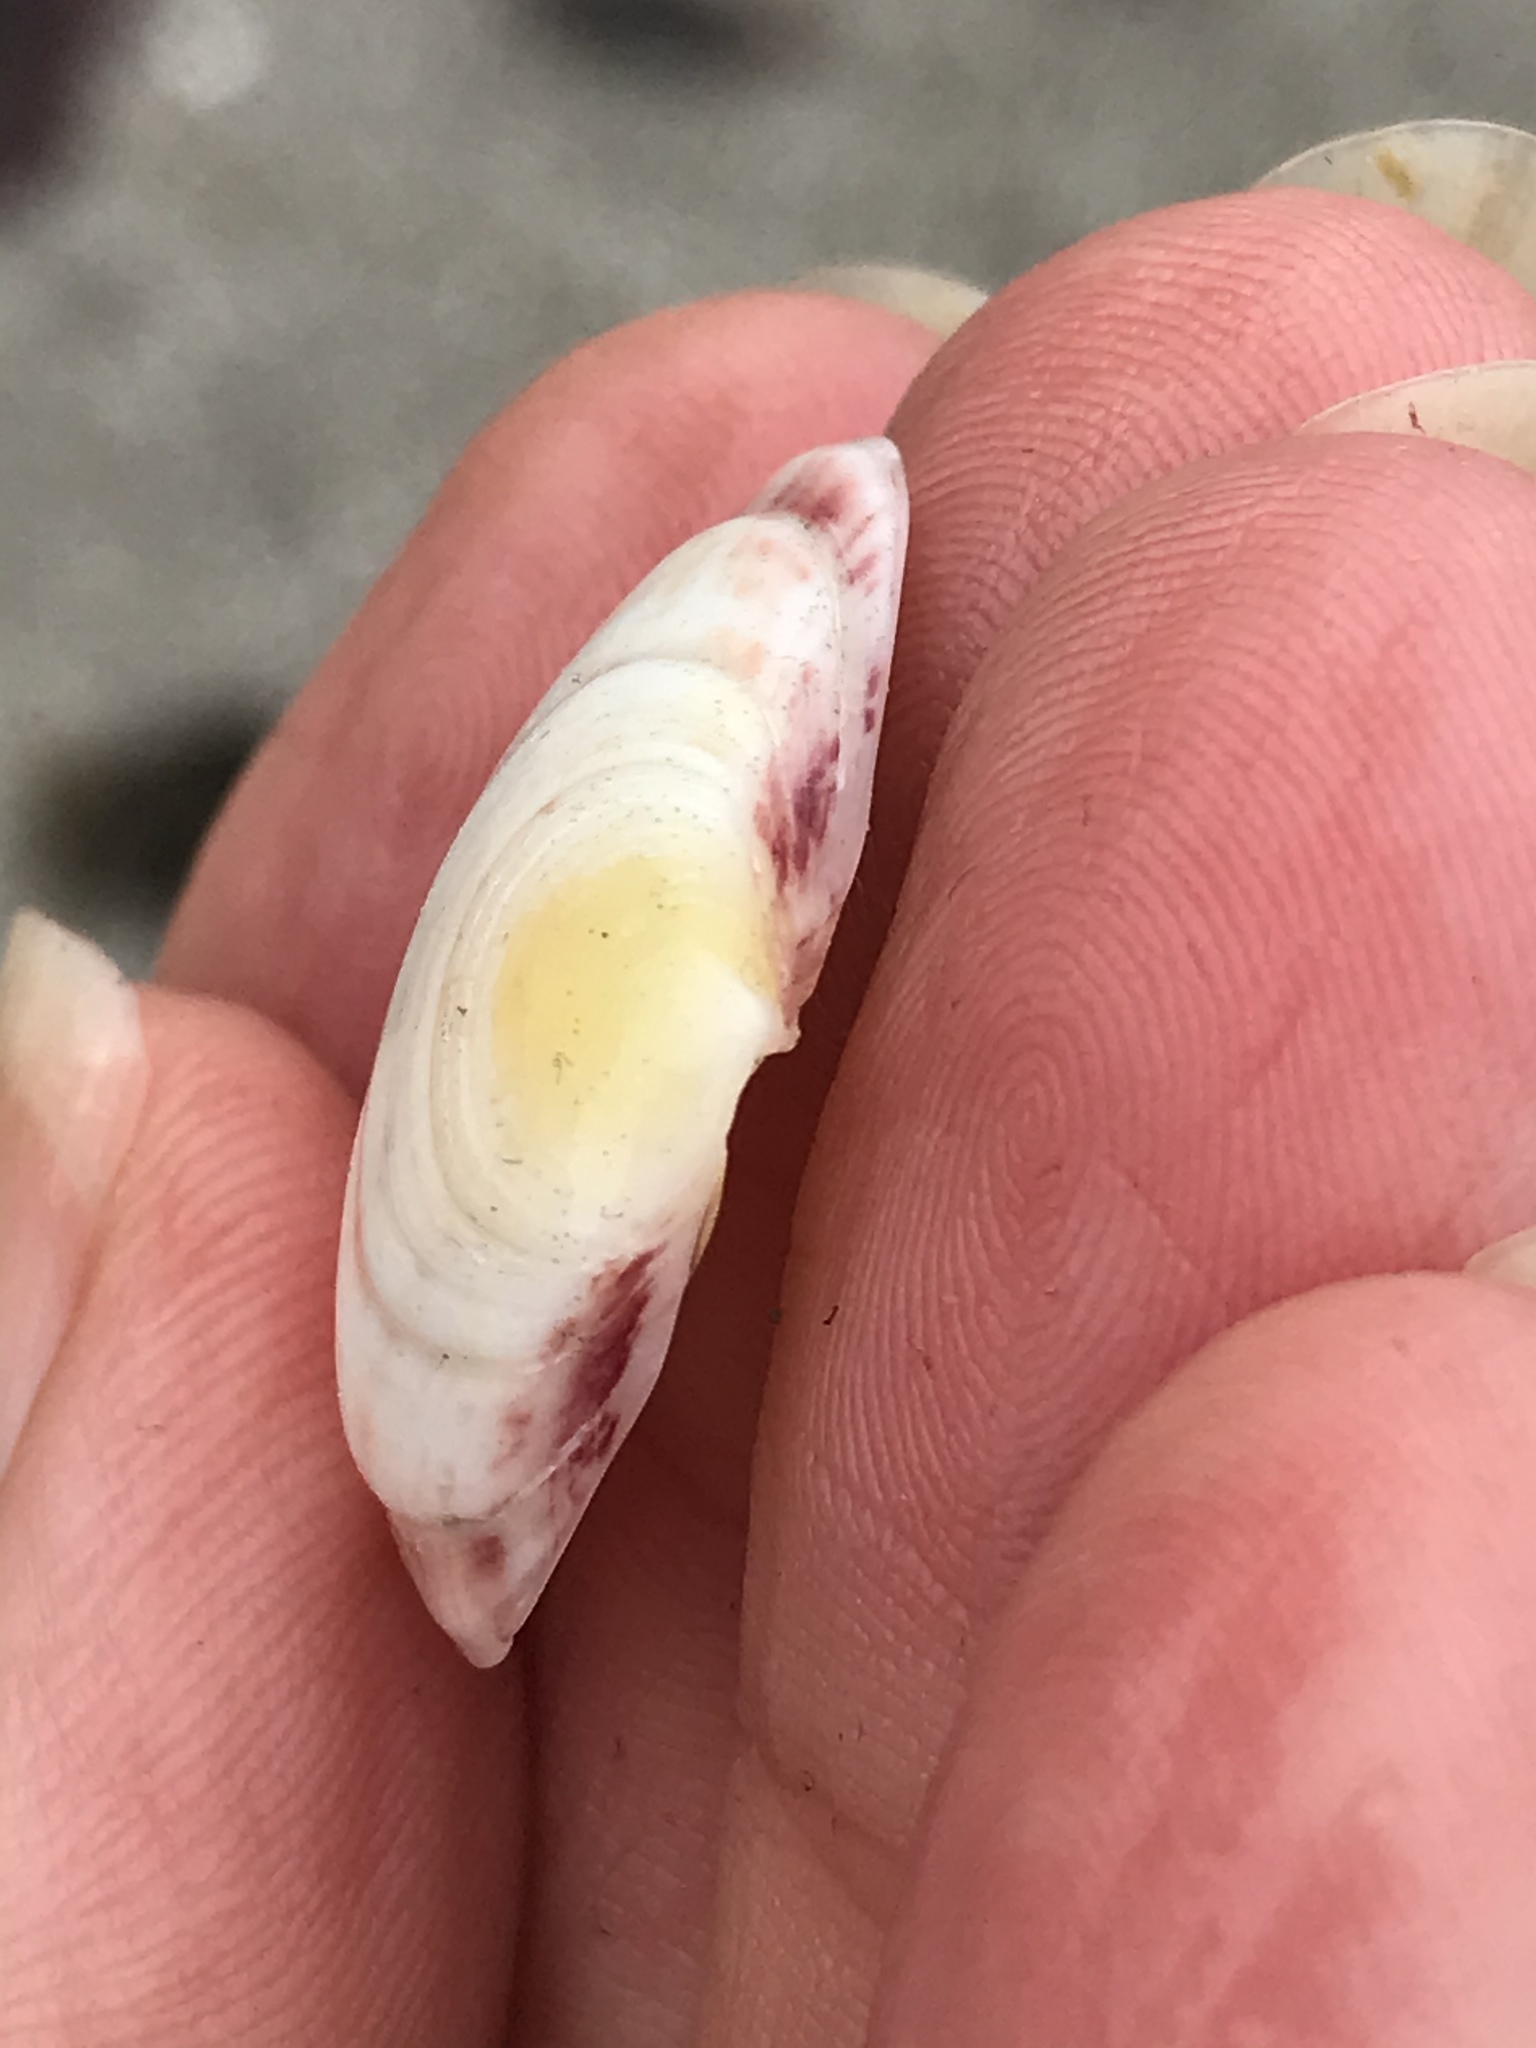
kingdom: Animalia
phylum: Mollusca
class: Bivalvia
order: Cardiida
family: Semelidae
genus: Semele
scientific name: Semele rubropicta
